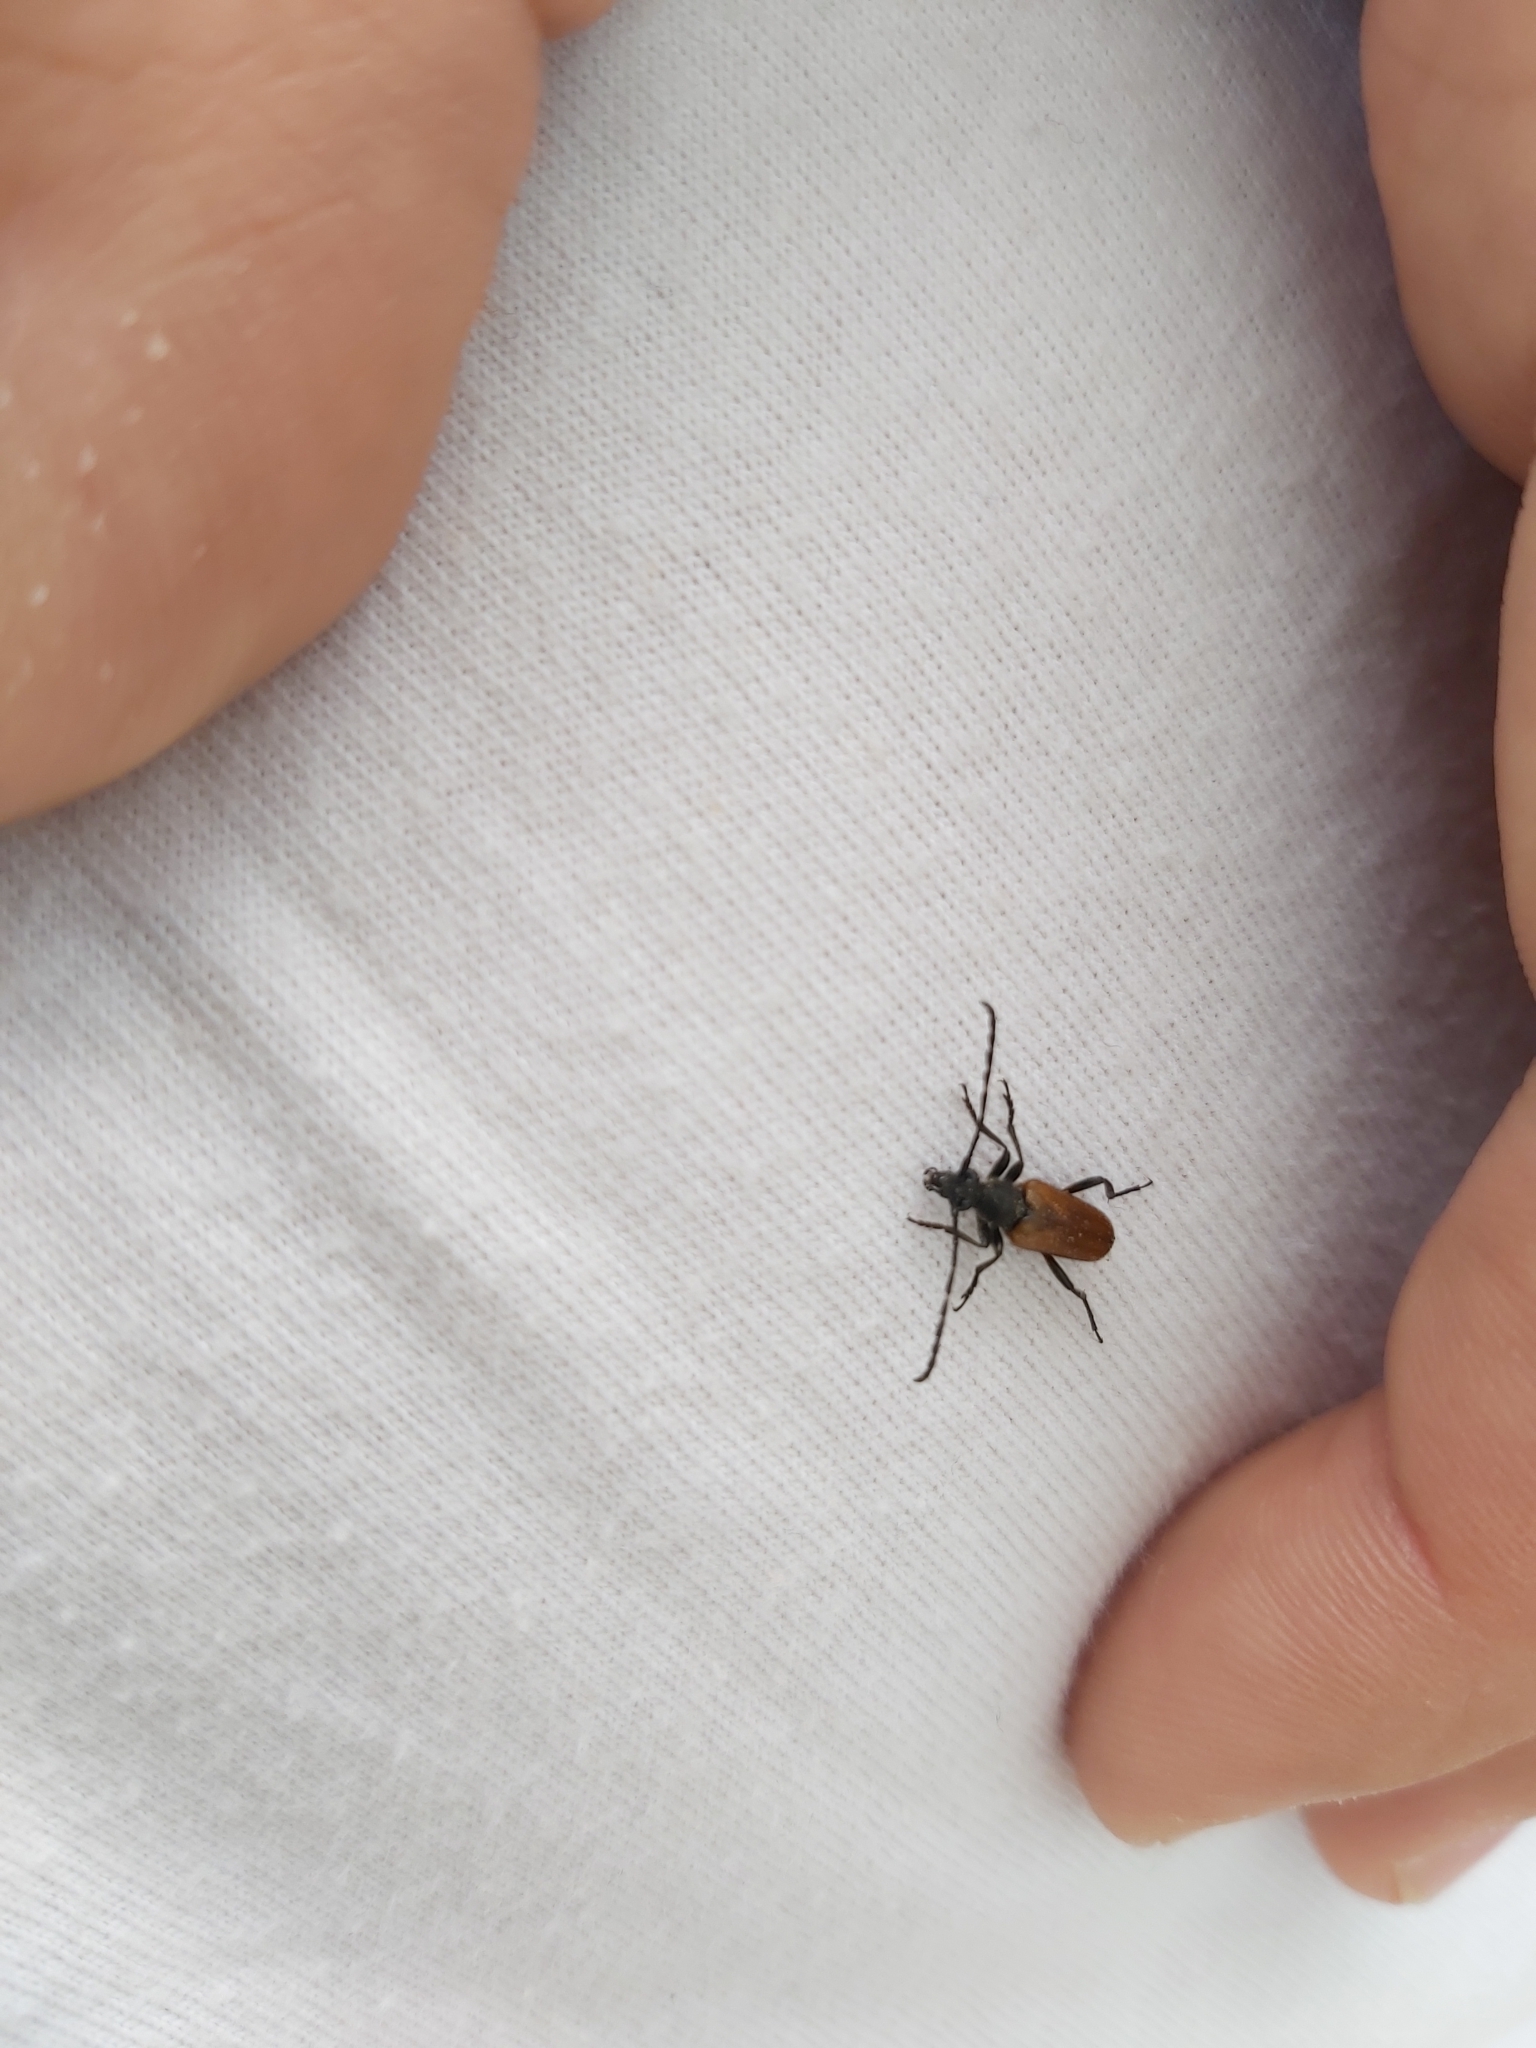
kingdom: Animalia
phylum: Arthropoda
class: Insecta
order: Coleoptera
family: Cerambycidae
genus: Paracorymbia
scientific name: Paracorymbia maculicornis
